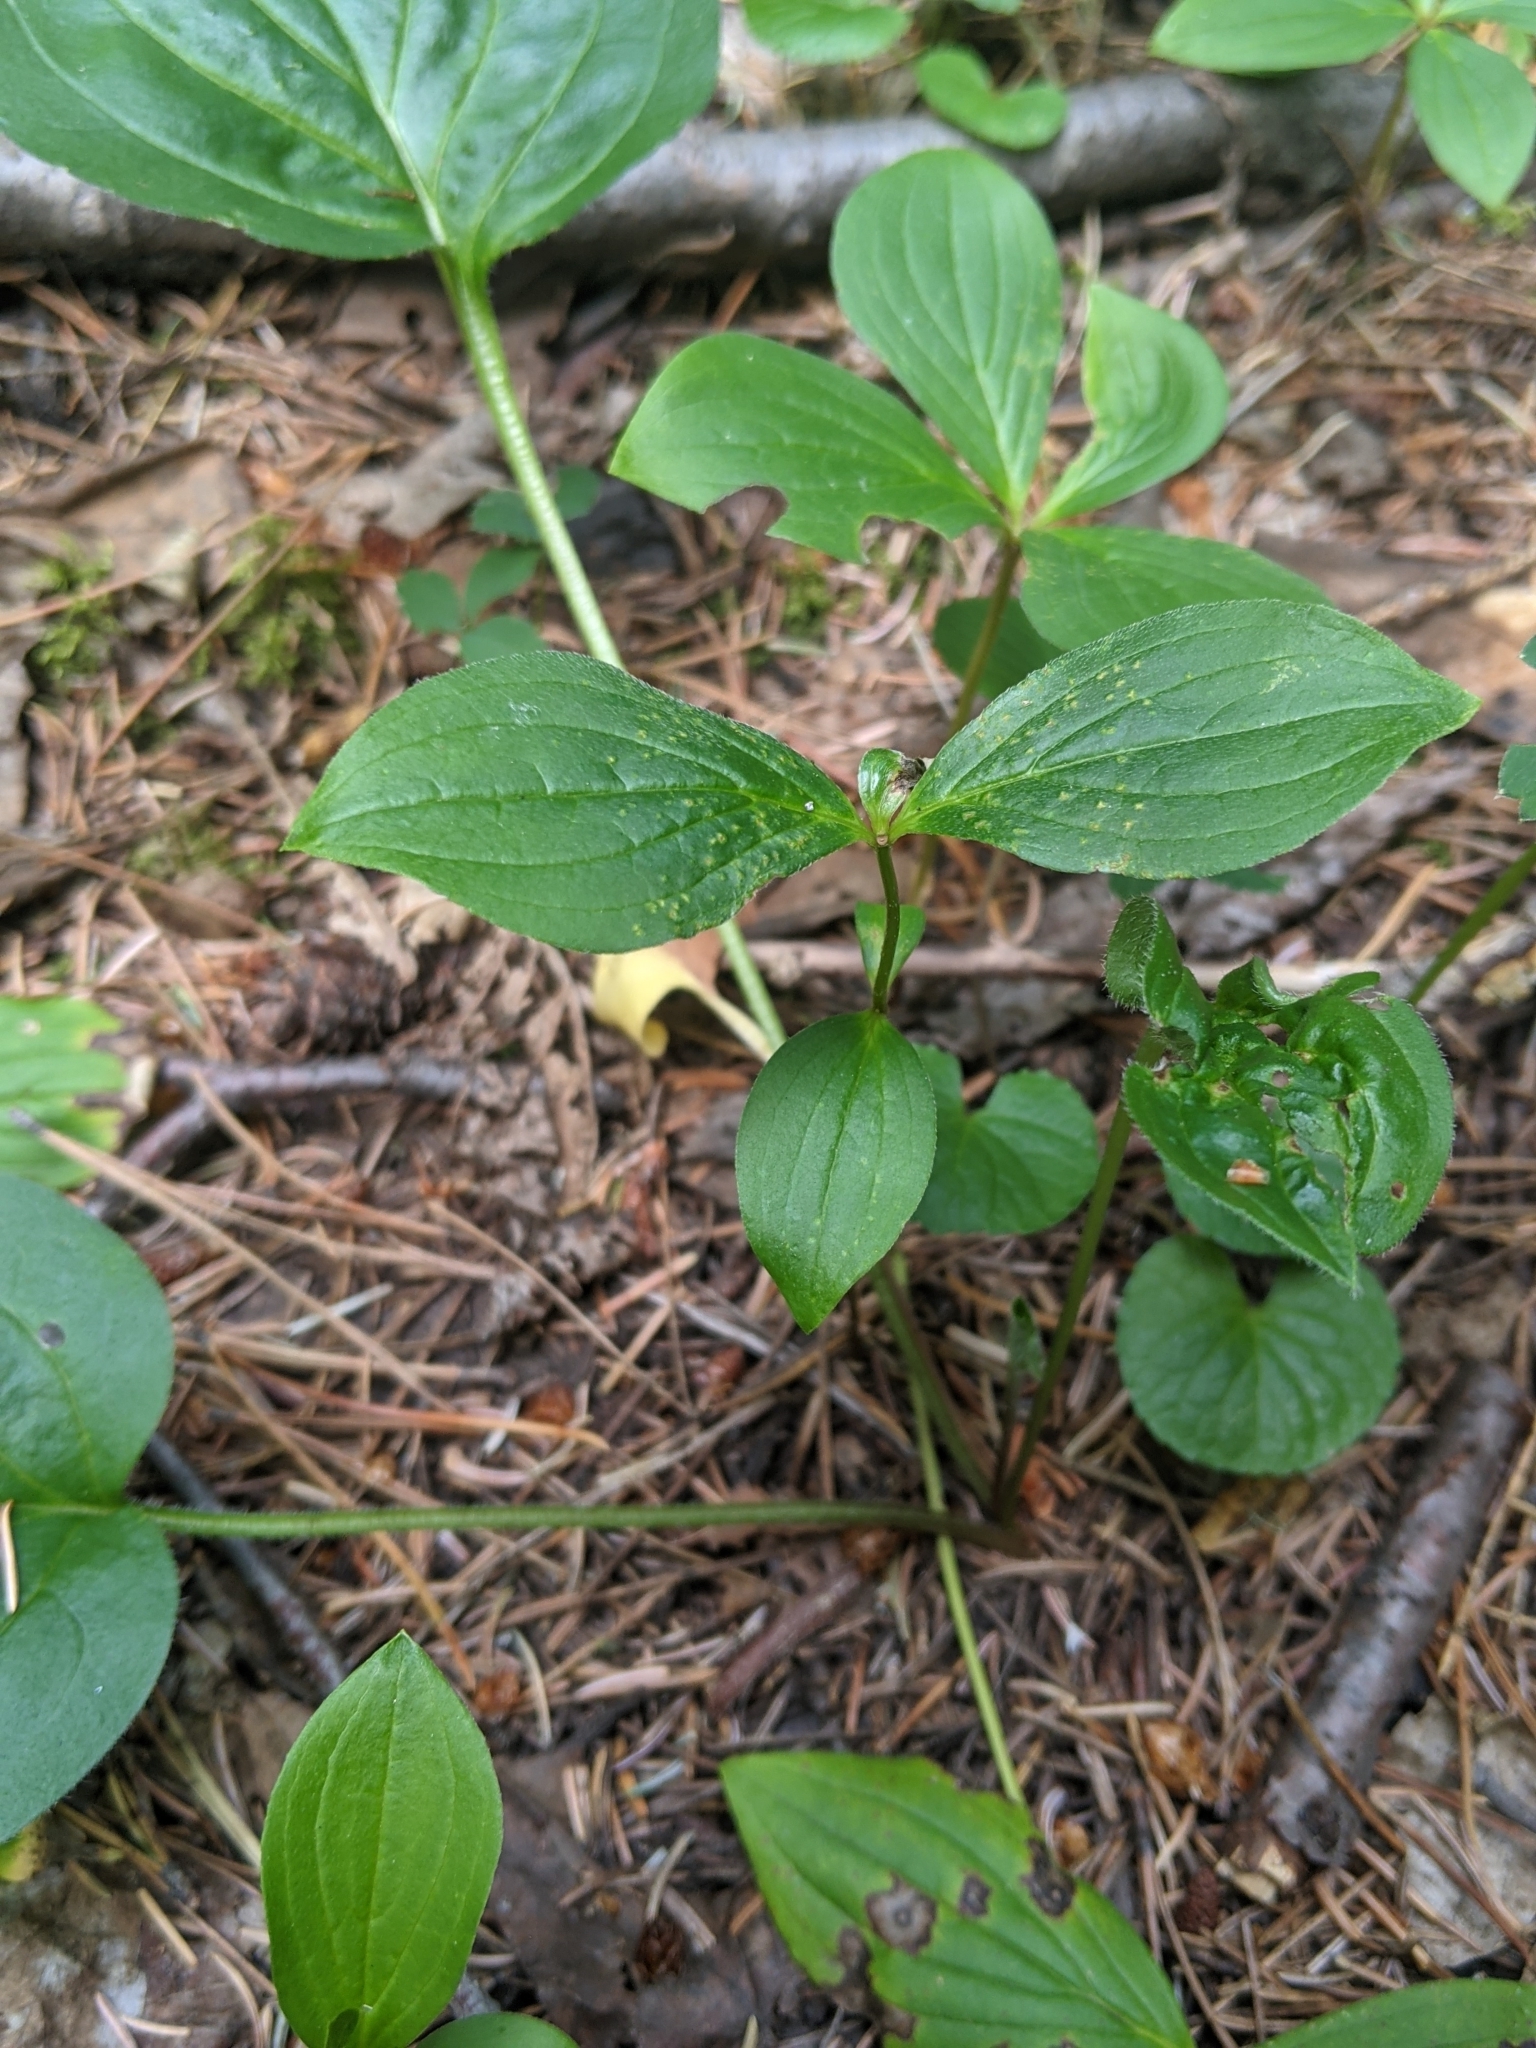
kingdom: Plantae
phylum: Tracheophyta
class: Magnoliopsida
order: Boraginales
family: Boraginaceae
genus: Mertensia
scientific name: Mertensia paniculata
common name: Panicled bluebells
